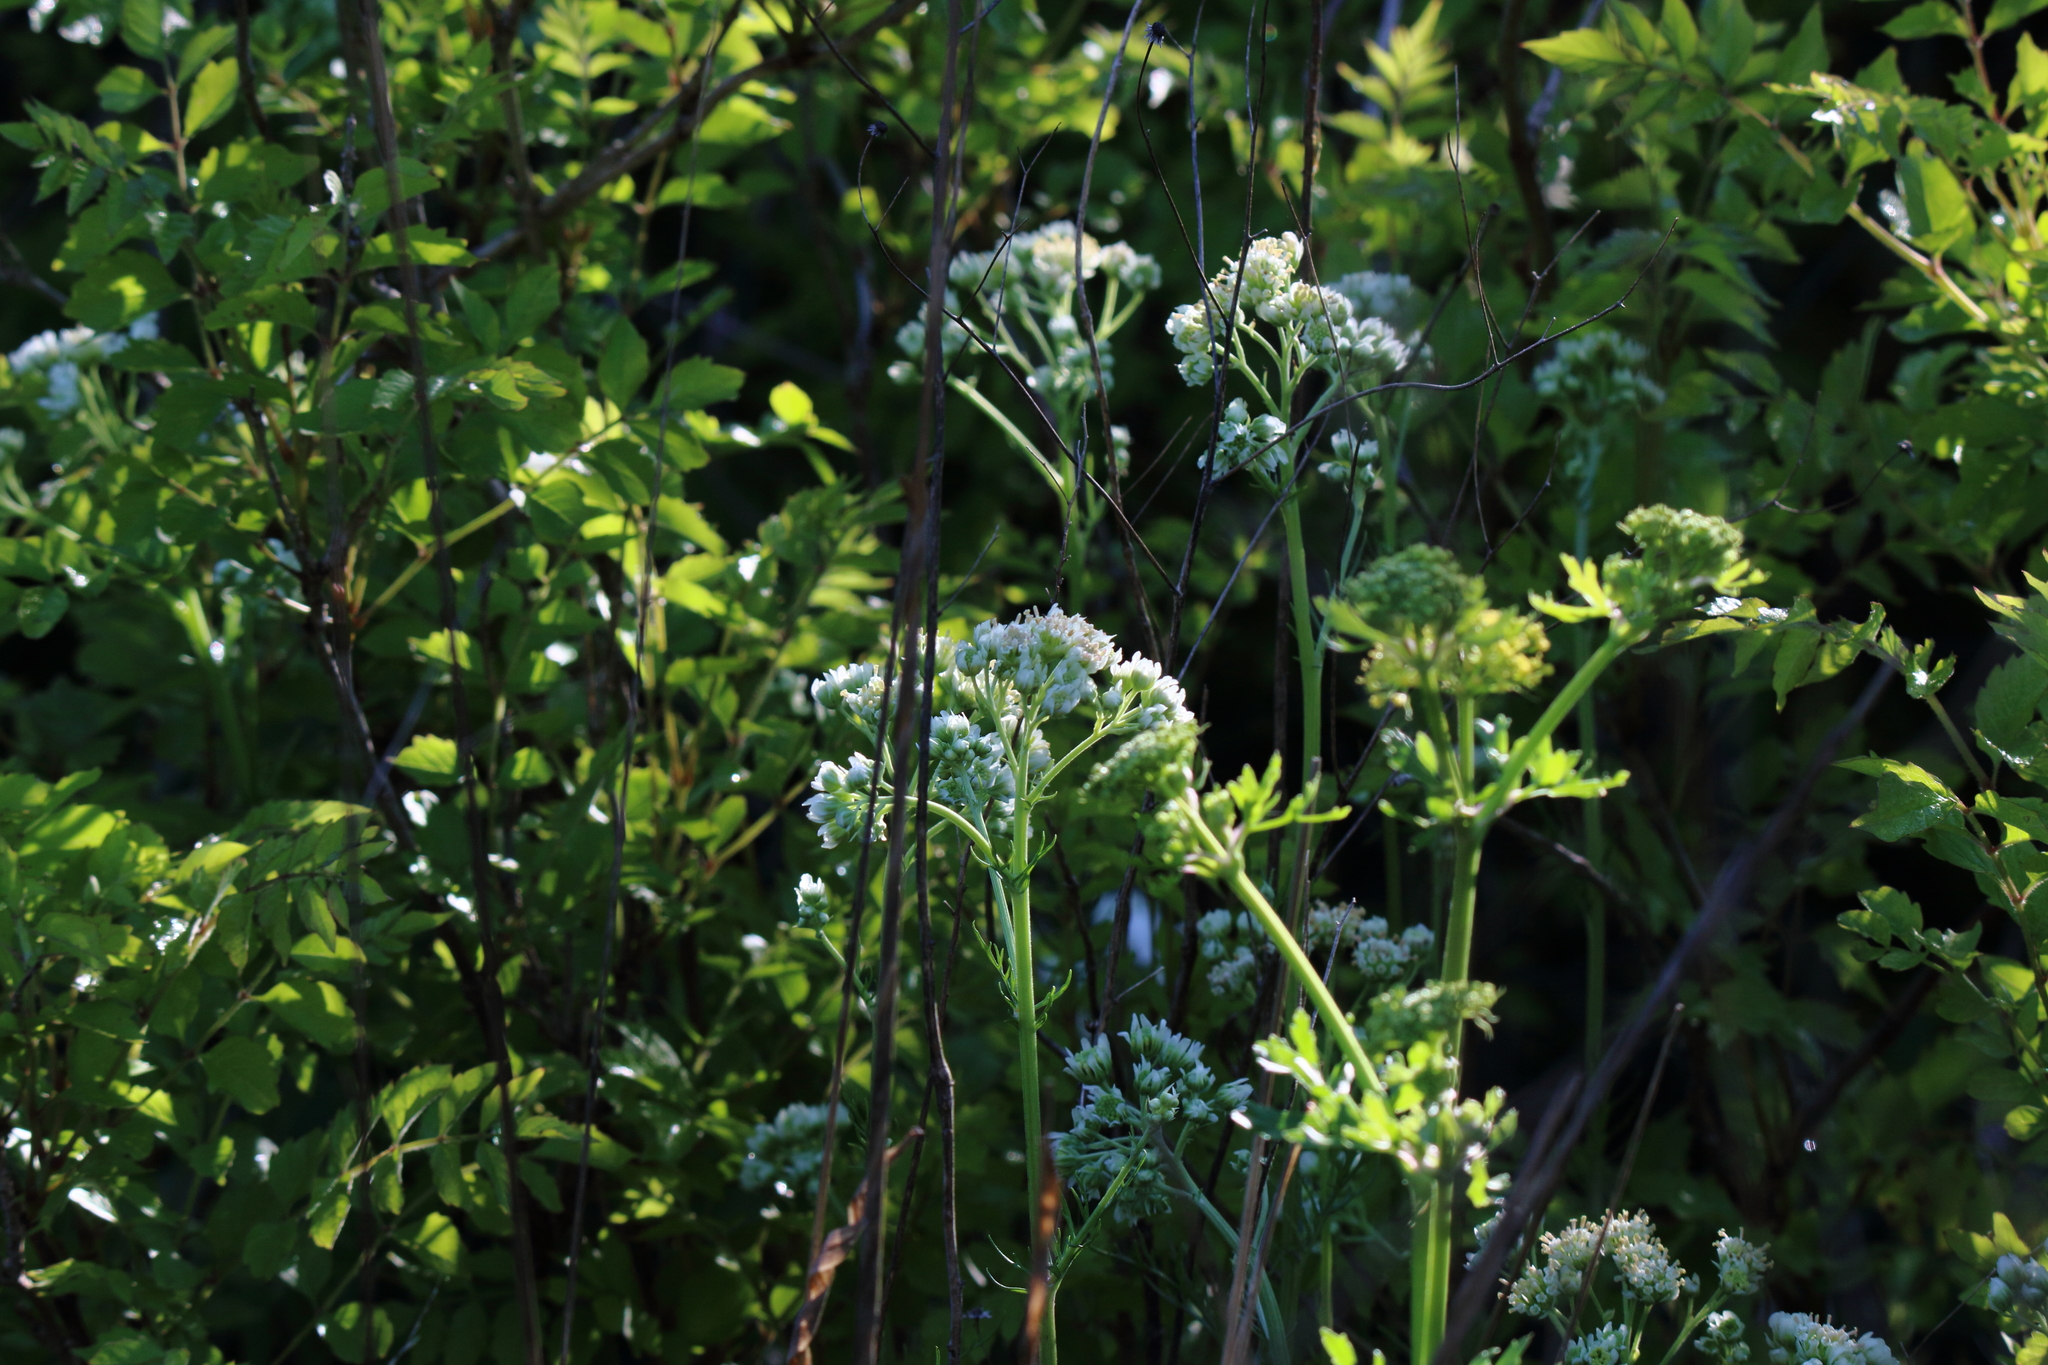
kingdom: Plantae
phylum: Tracheophyta
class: Magnoliopsida
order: Asterales
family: Asteraceae
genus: Hymenopappus
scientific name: Hymenopappus artemisiifolius
